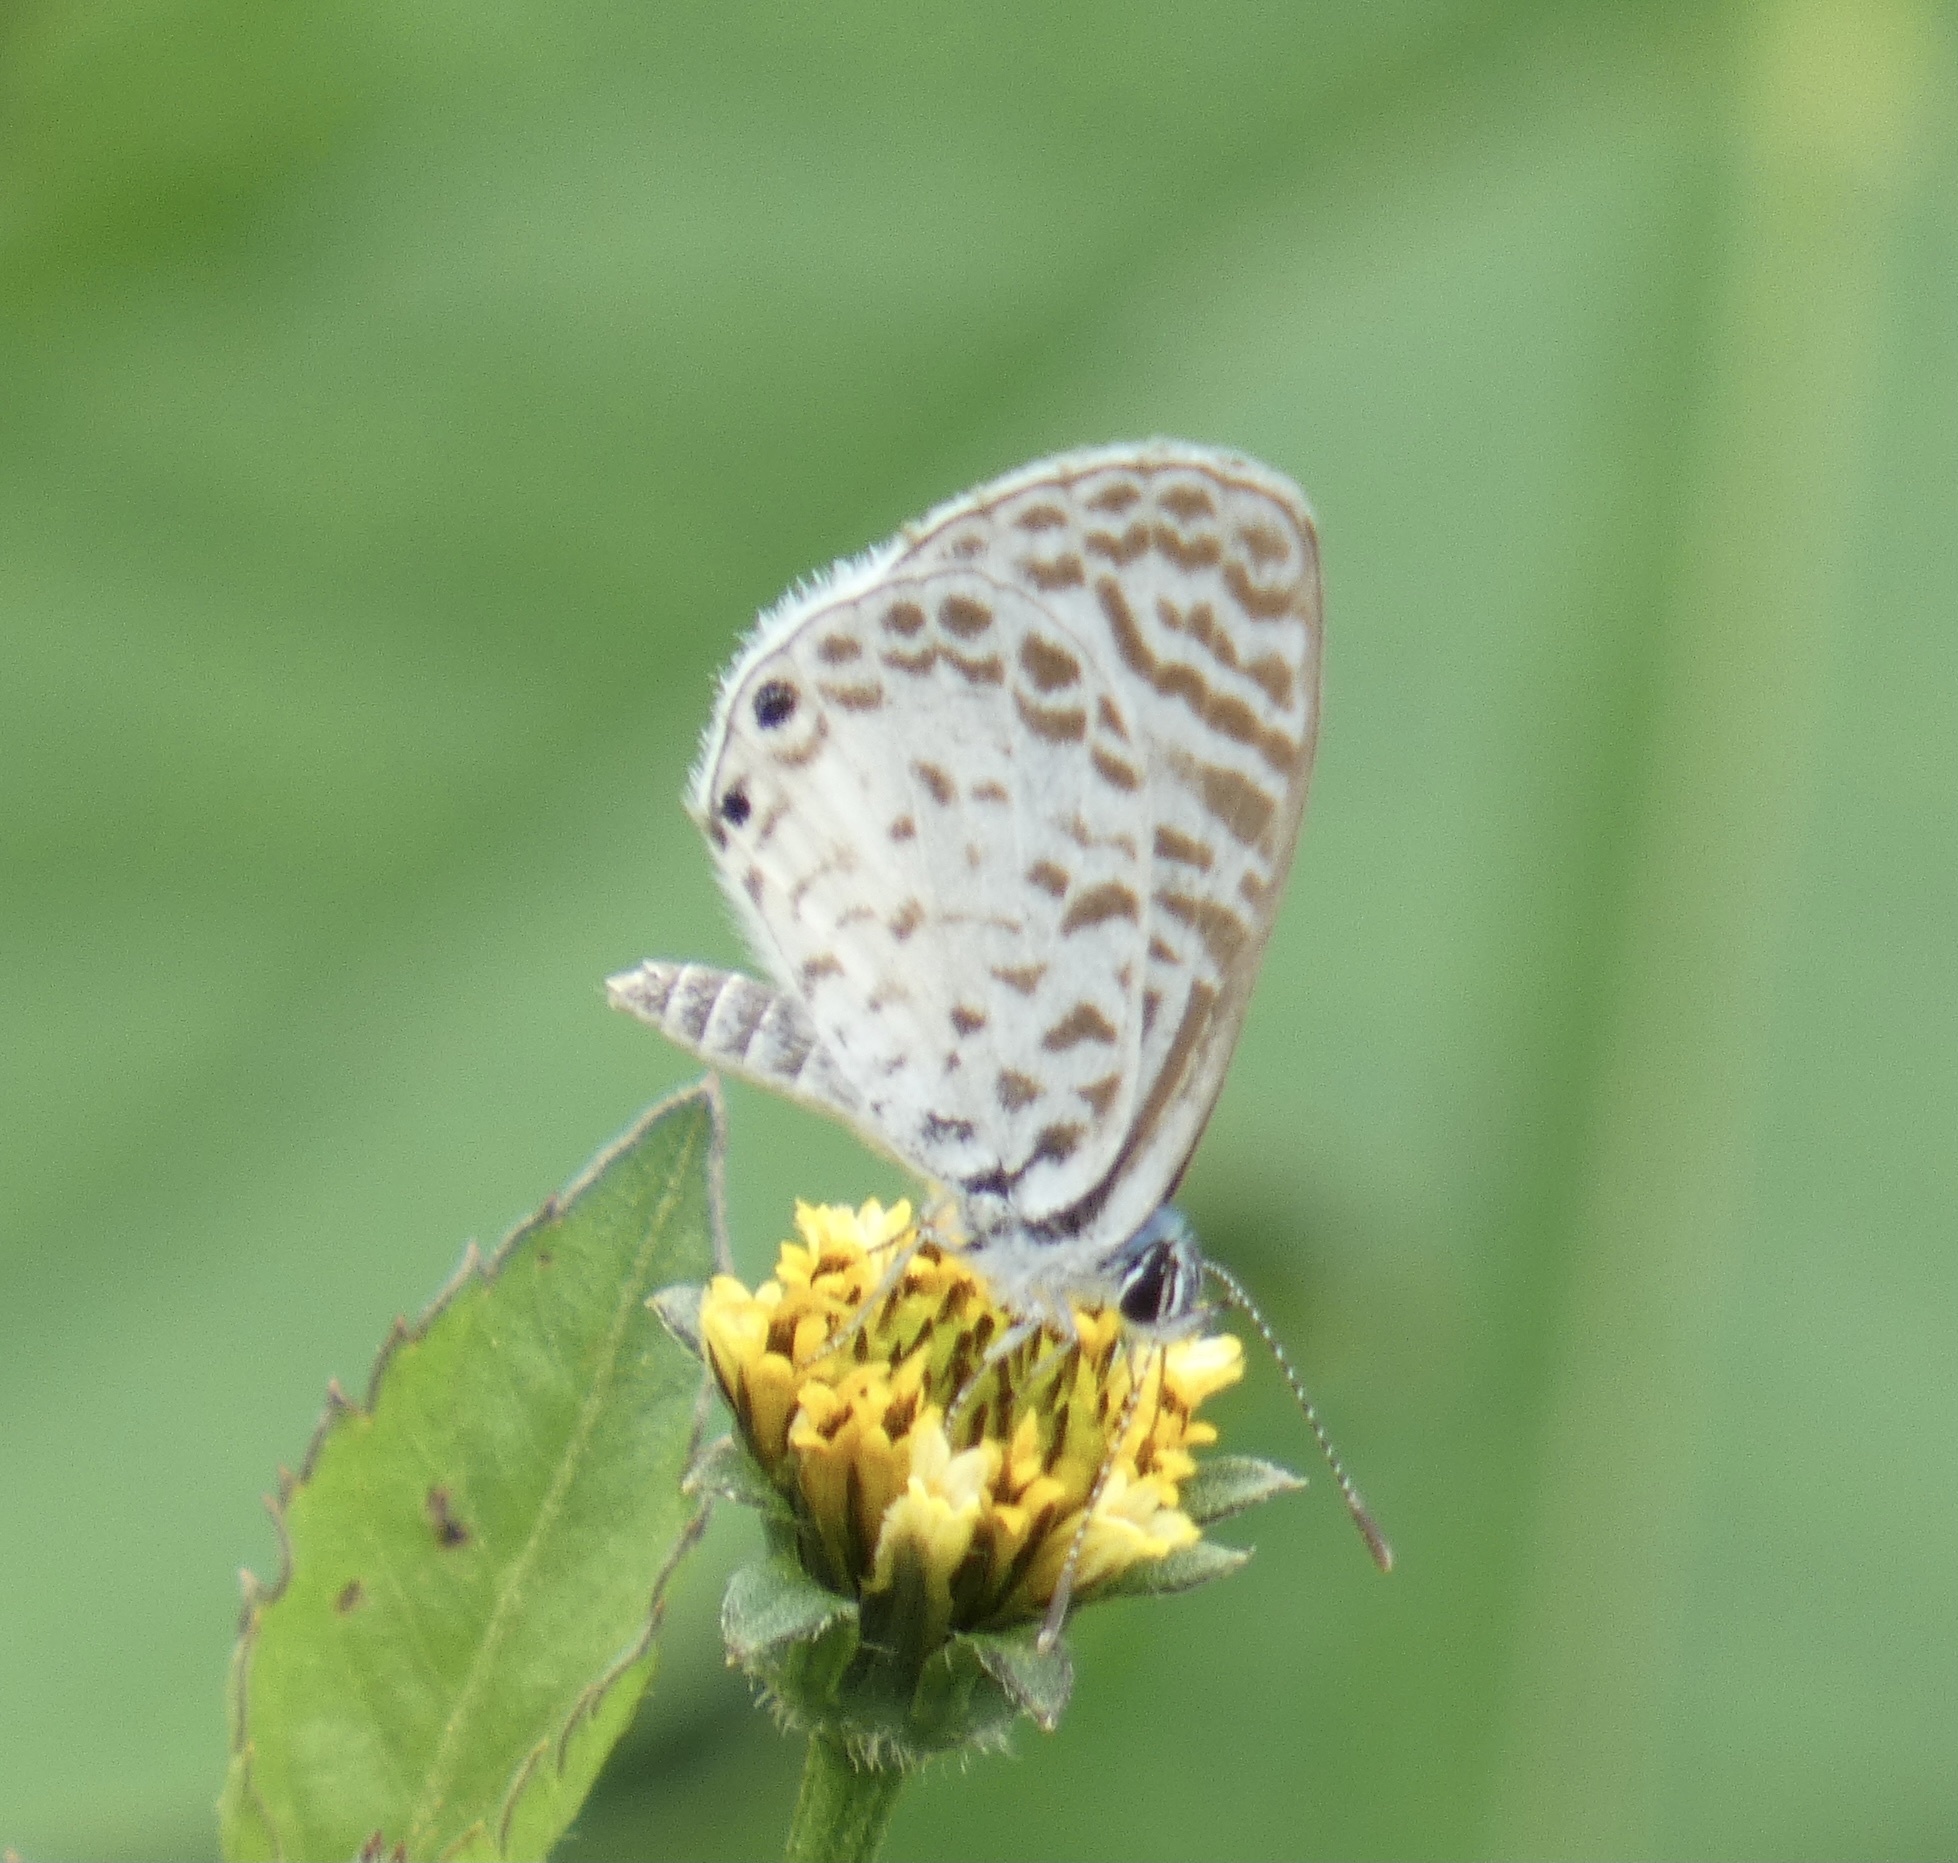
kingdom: Animalia
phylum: Arthropoda
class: Insecta
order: Lepidoptera
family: Lycaenidae
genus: Leptotes
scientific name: Leptotes cassius
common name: Cassius blue
